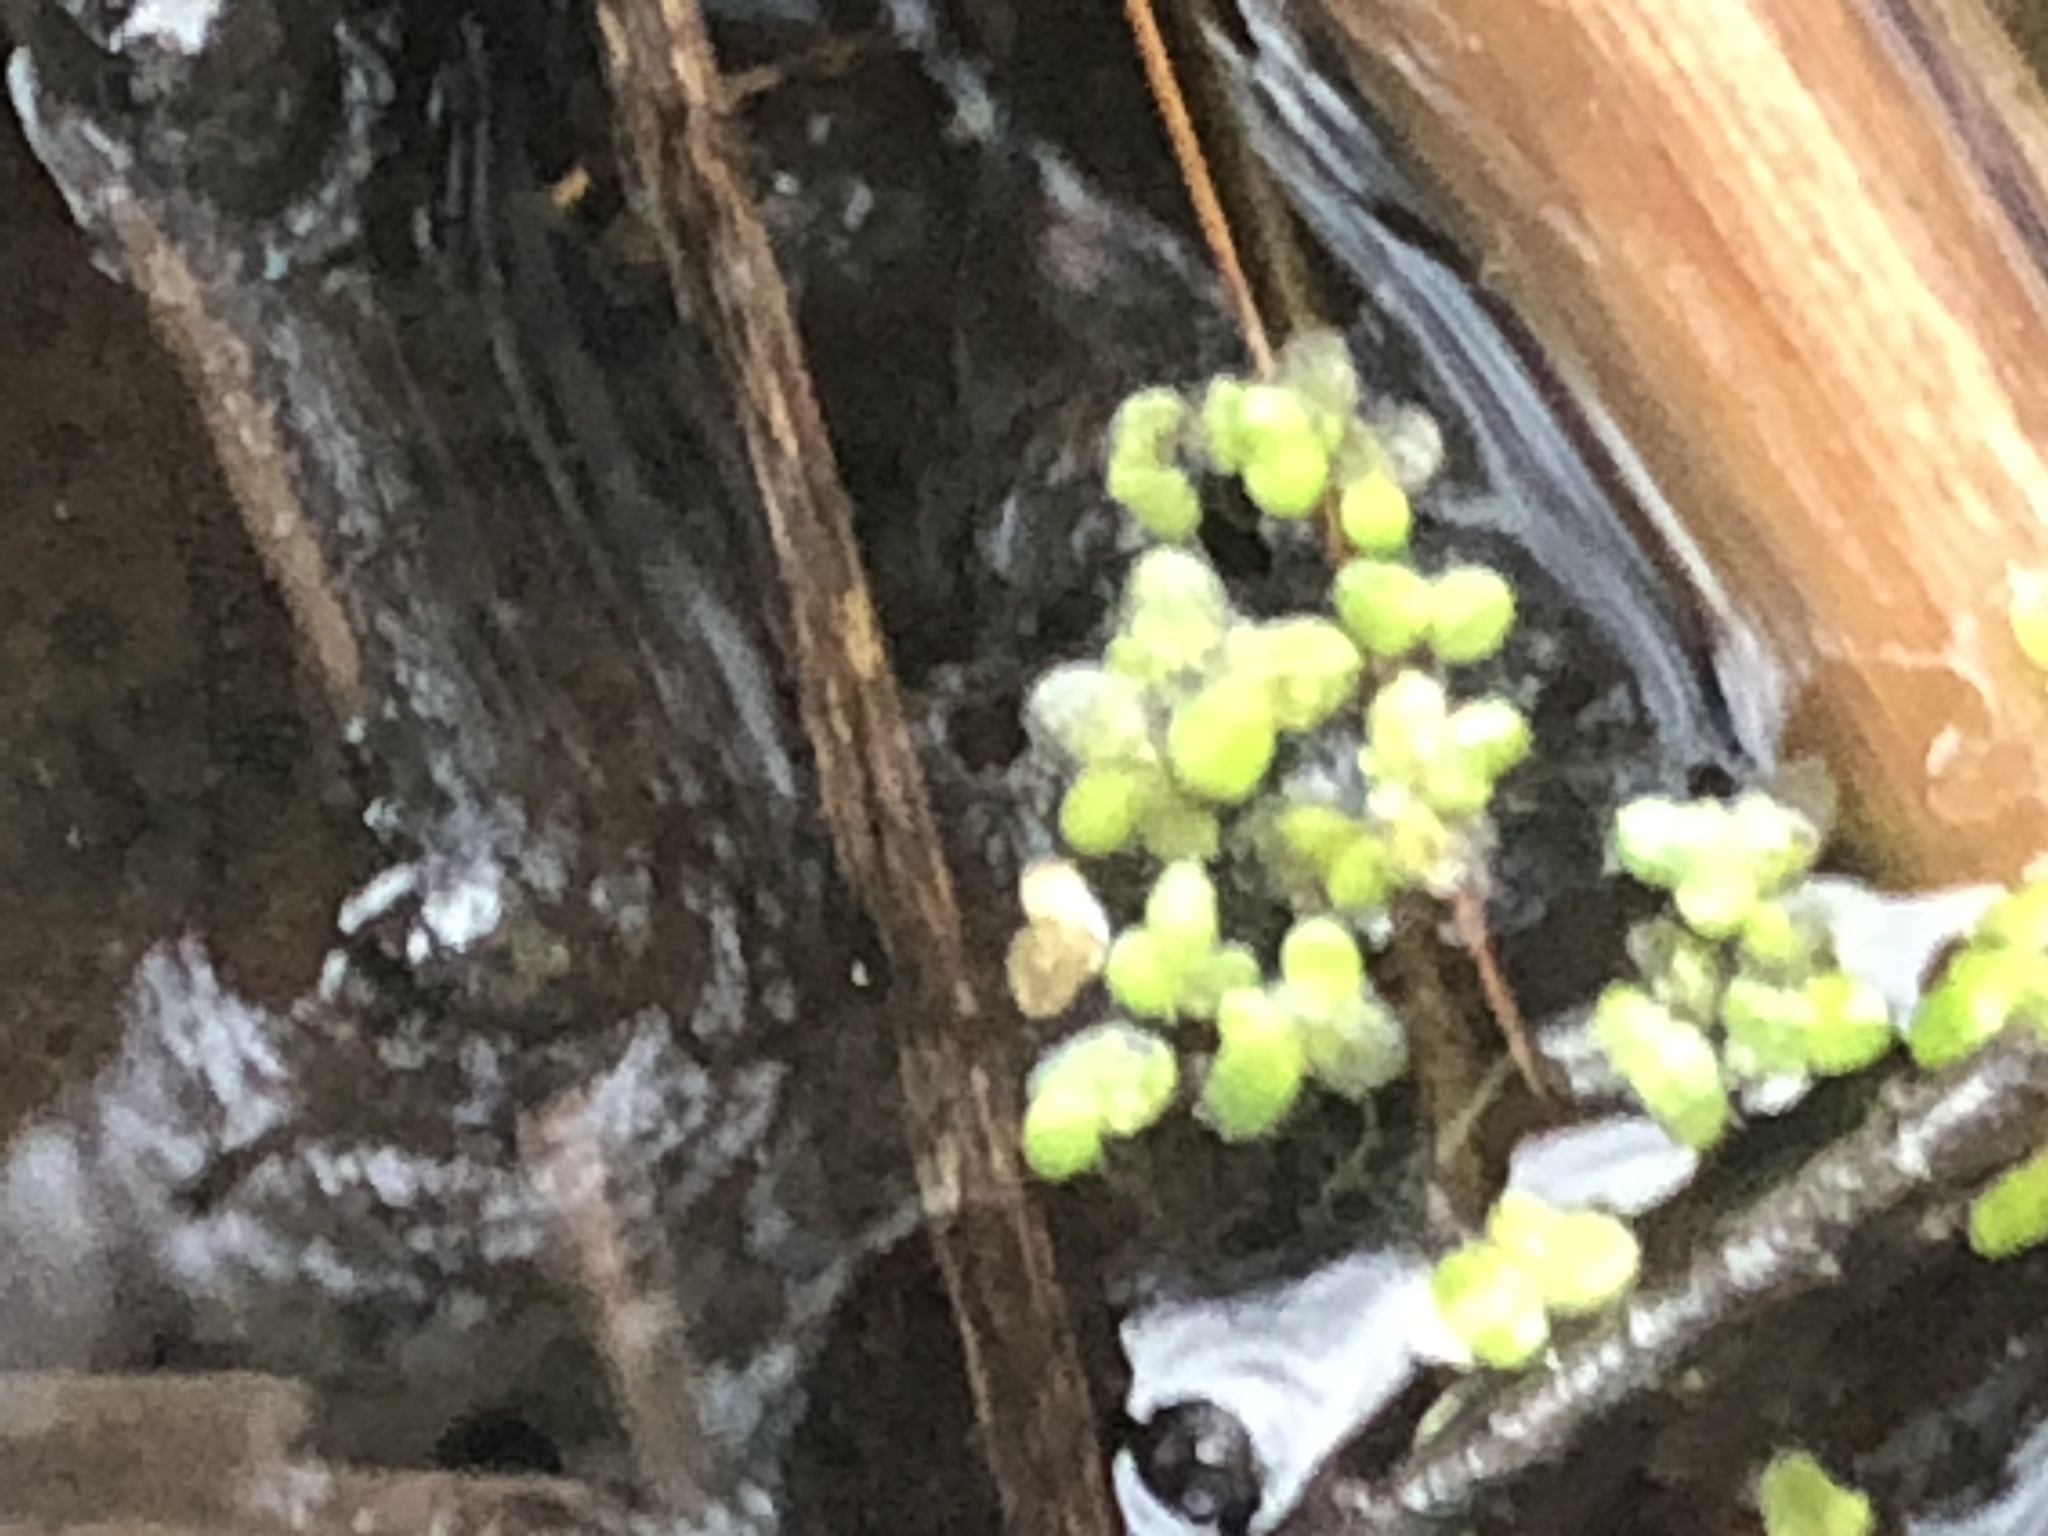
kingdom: Plantae
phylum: Tracheophyta
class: Liliopsida
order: Alismatales
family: Araceae
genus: Lemna
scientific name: Lemna minor
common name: Common duckweed
